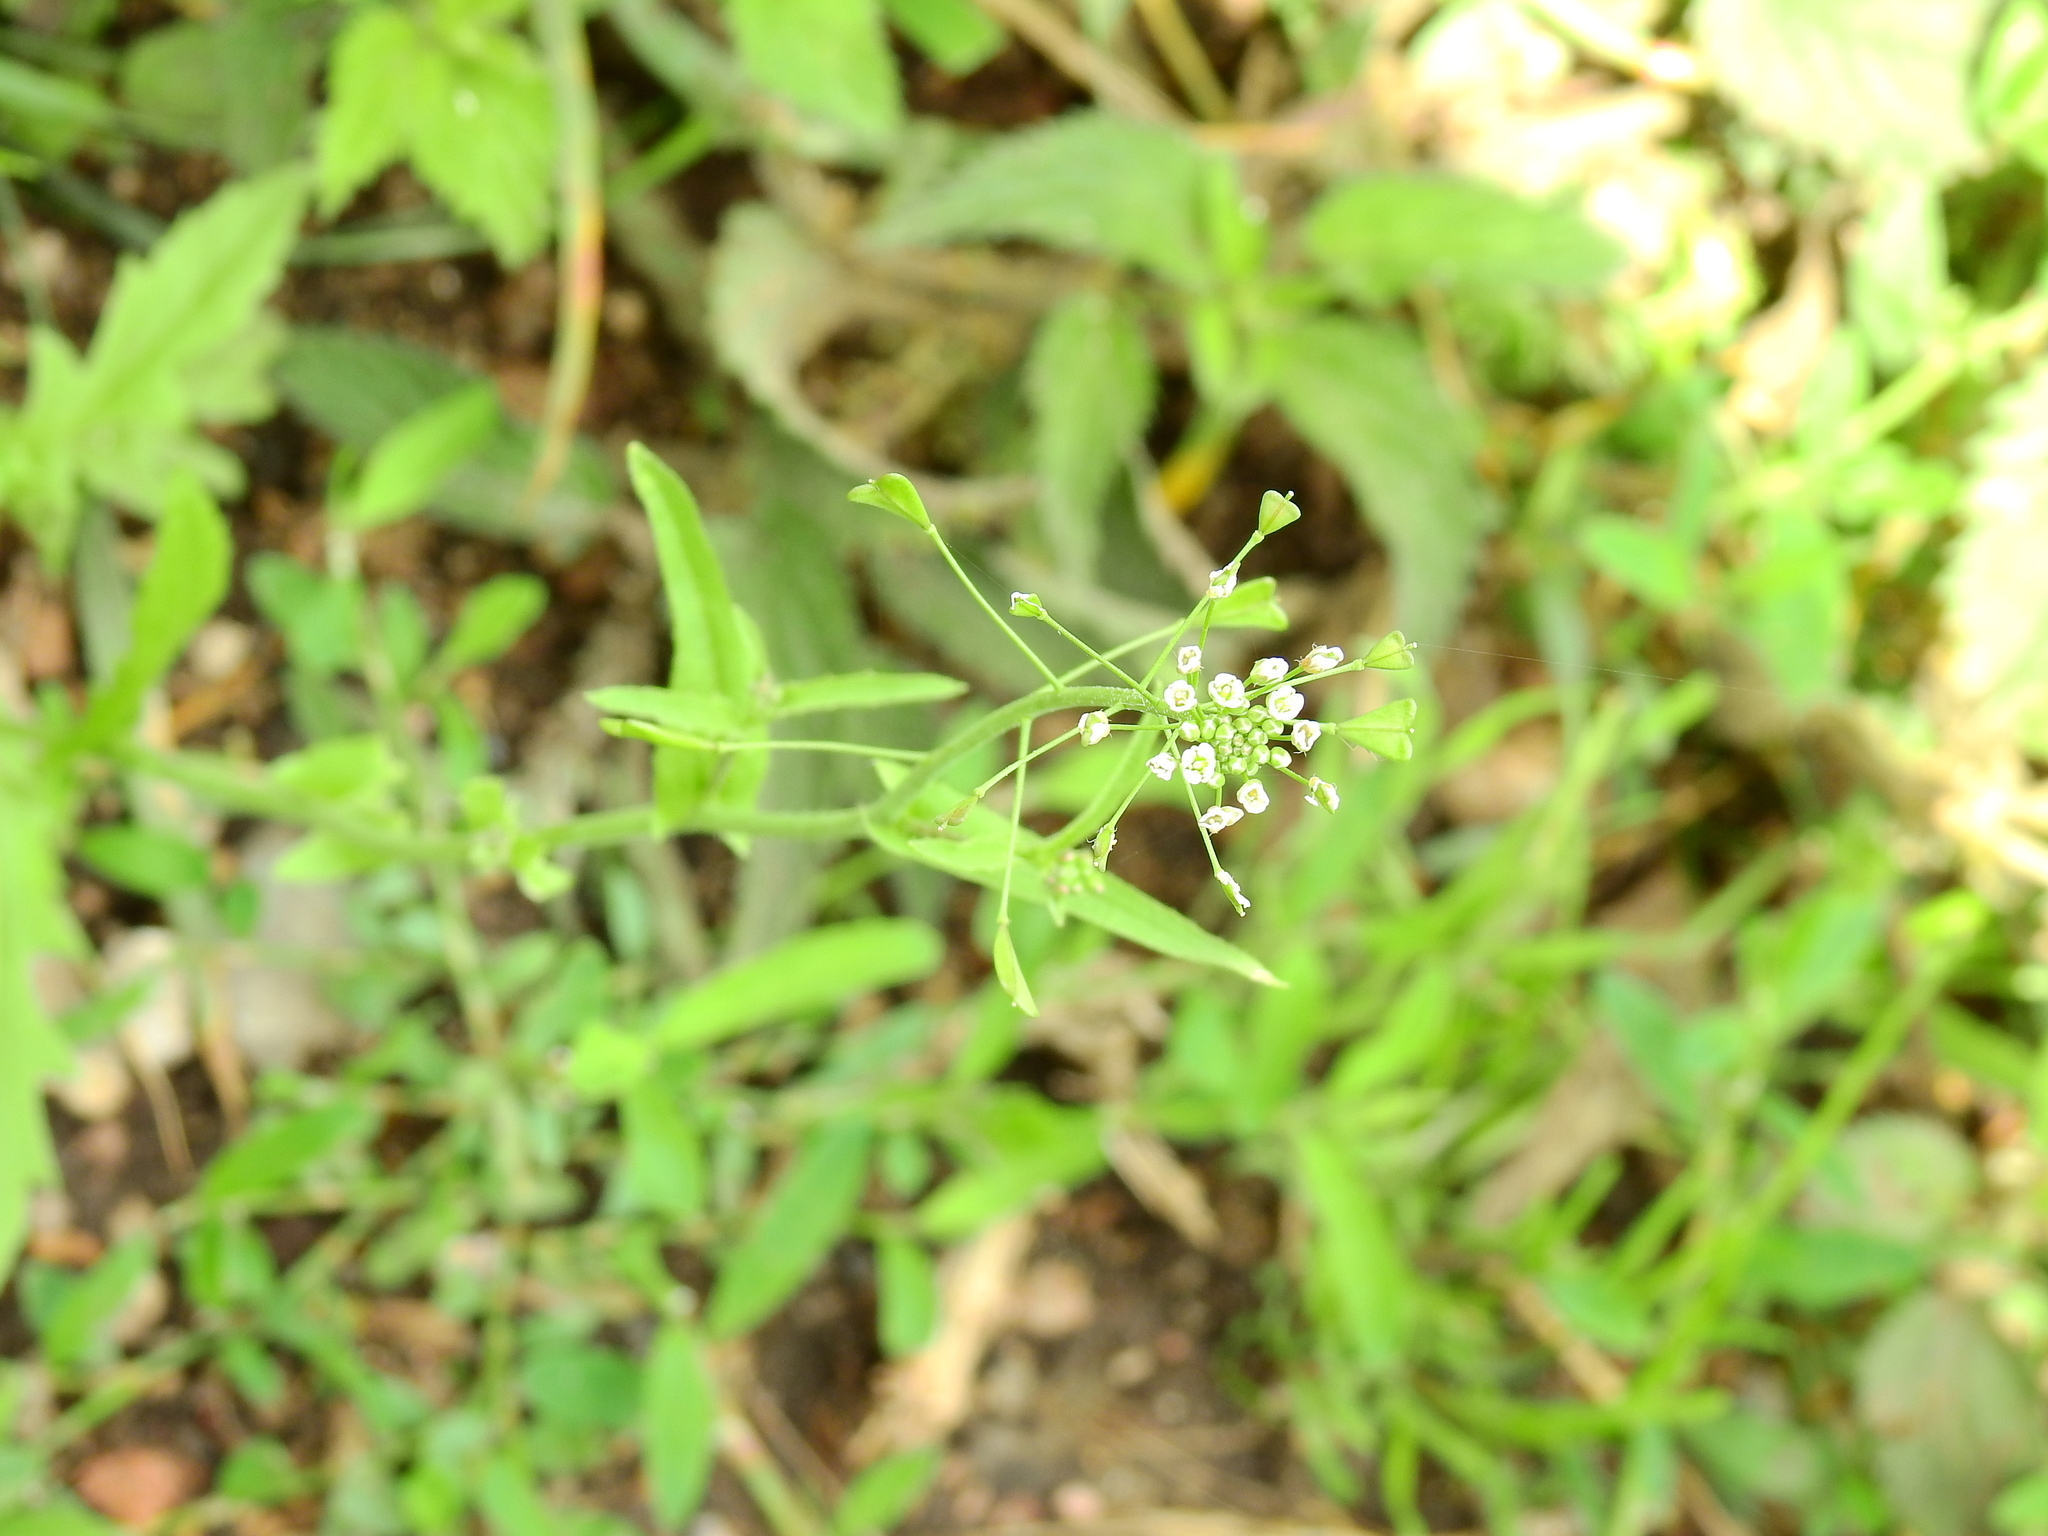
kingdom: Plantae
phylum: Tracheophyta
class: Magnoliopsida
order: Brassicales
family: Brassicaceae
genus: Capsella
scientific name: Capsella bursa-pastoris
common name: Shepherd's purse
